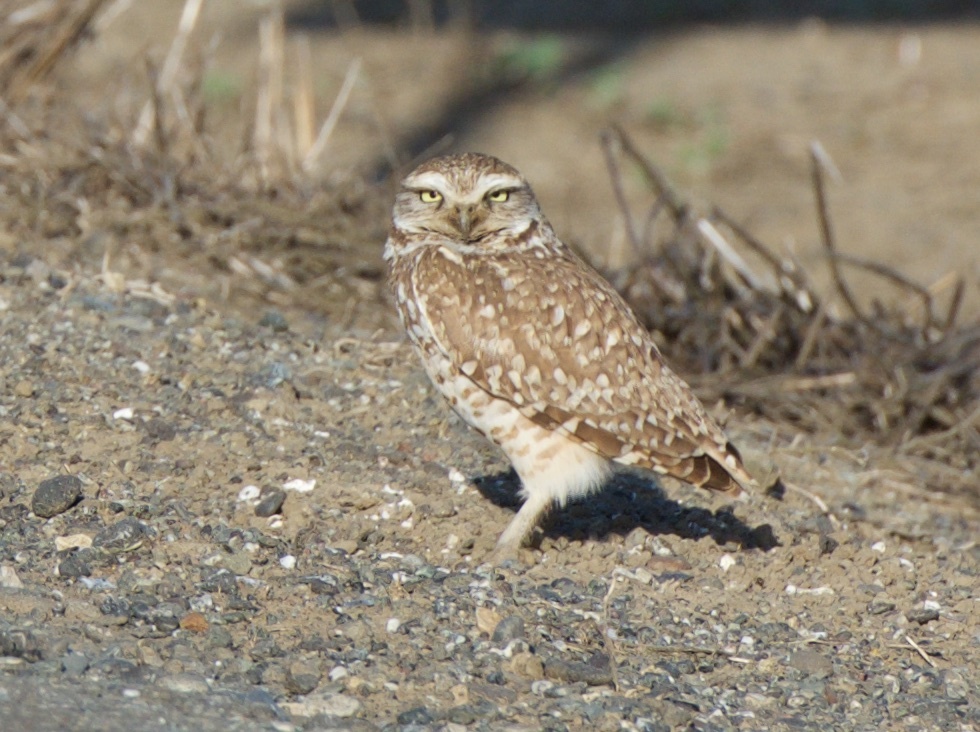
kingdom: Animalia
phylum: Chordata
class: Aves
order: Strigiformes
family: Strigidae
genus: Athene
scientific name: Athene cunicularia
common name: Burrowing owl
